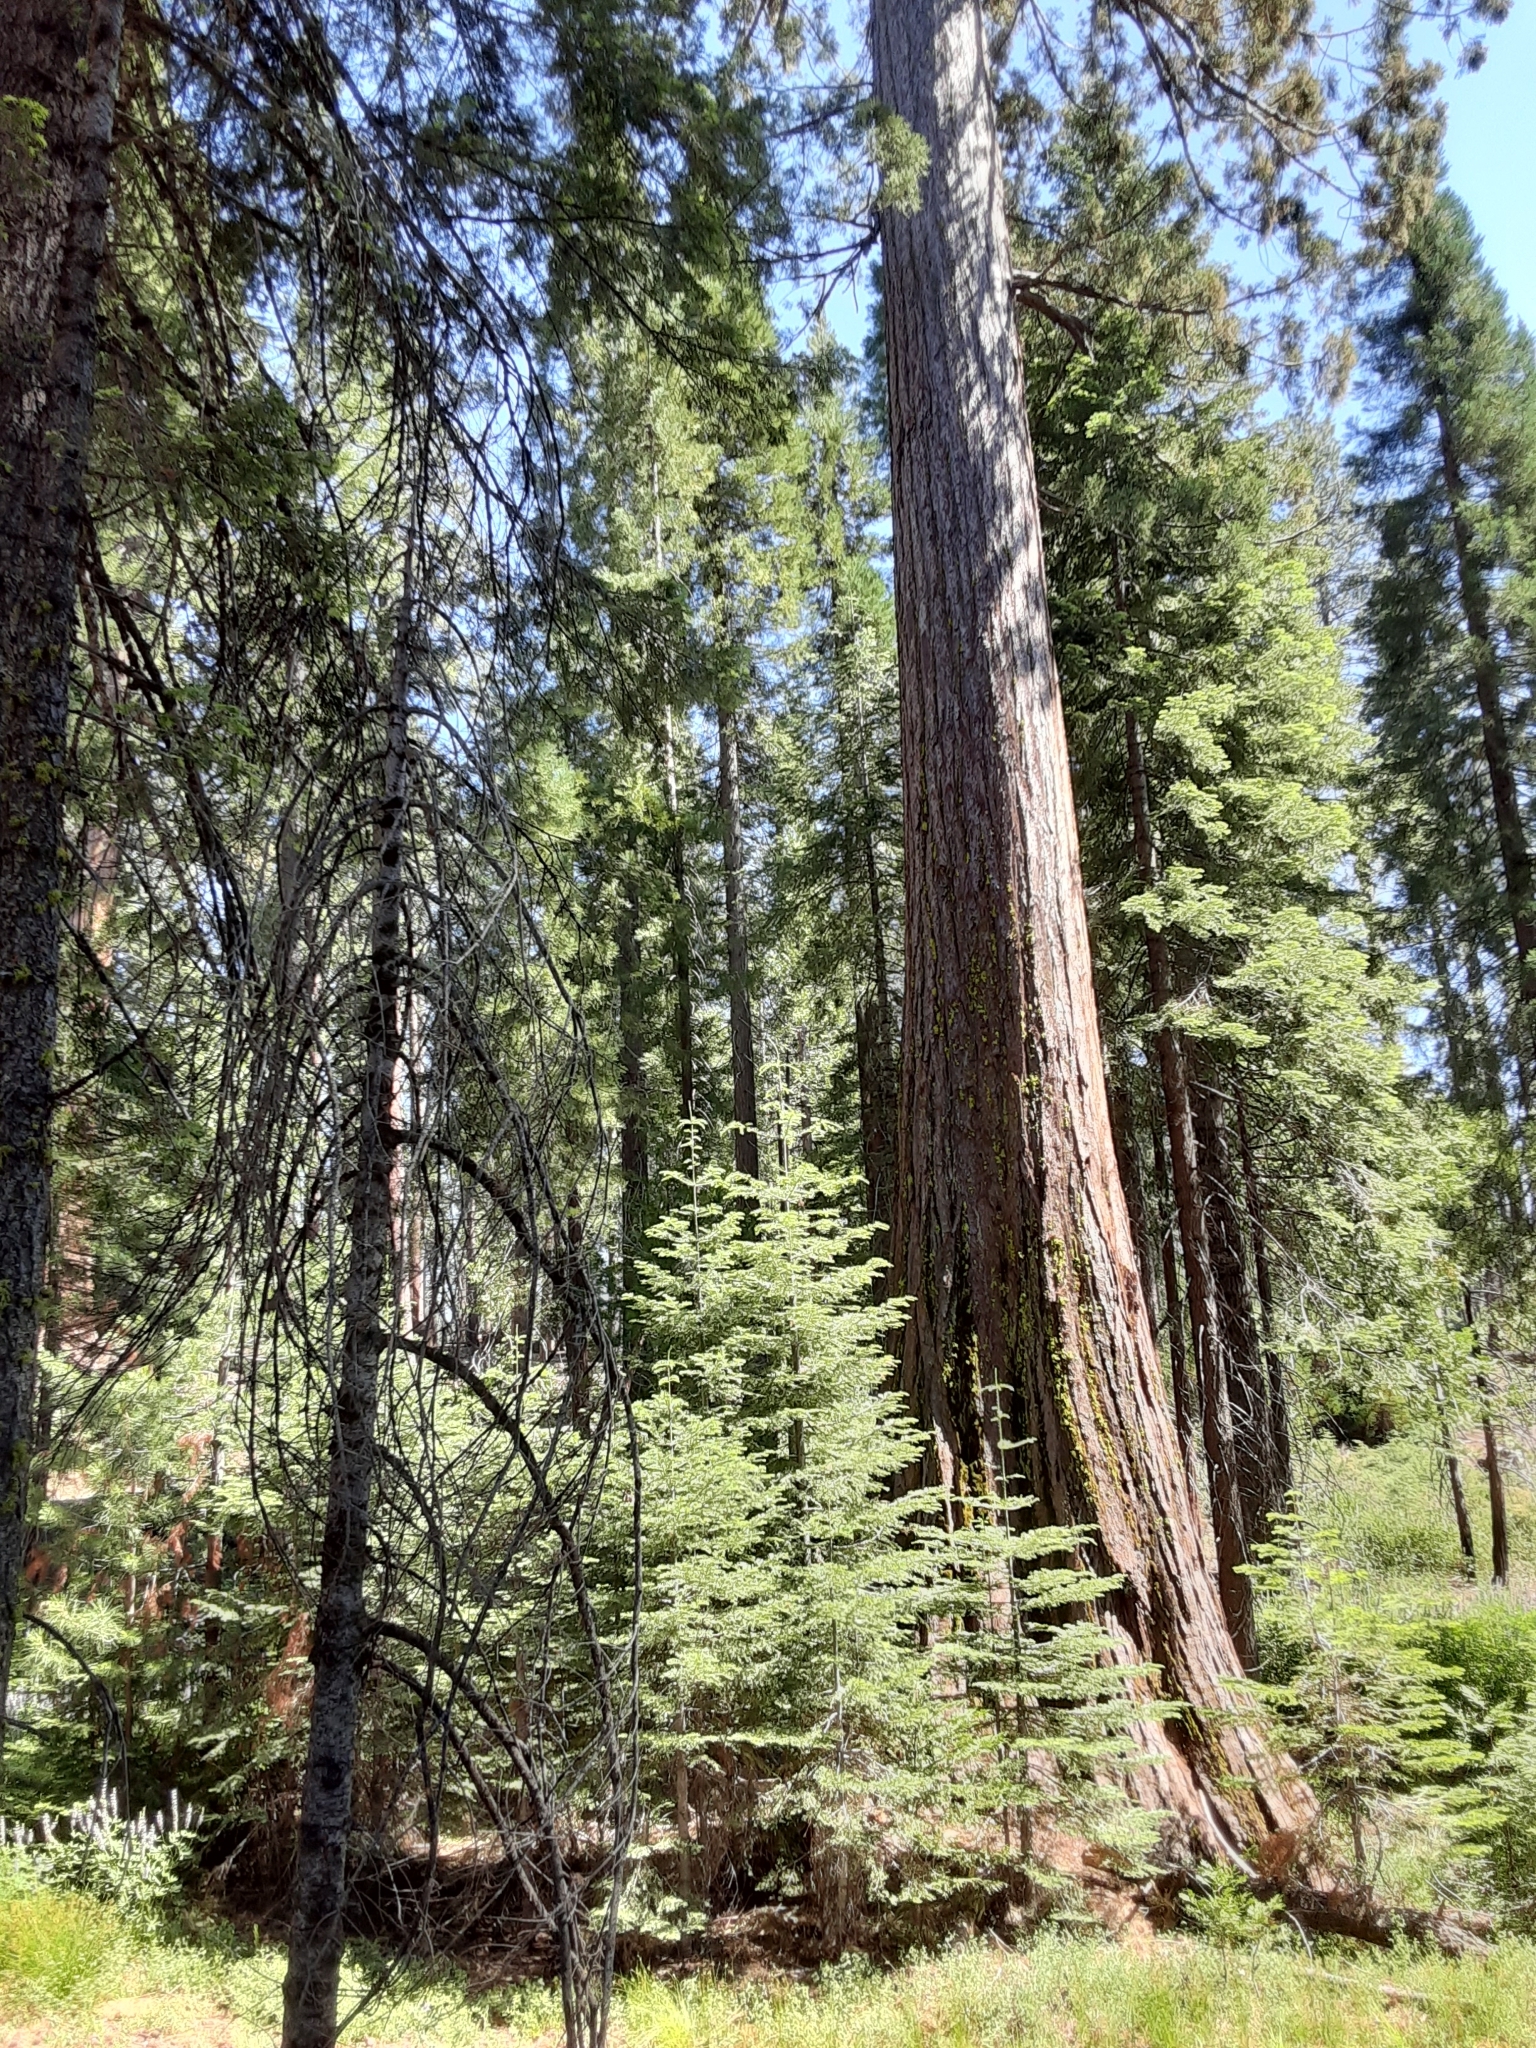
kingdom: Plantae
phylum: Tracheophyta
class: Pinopsida
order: Pinales
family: Cupressaceae
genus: Sequoiadendron
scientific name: Sequoiadendron giganteum
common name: Wellingtonia
